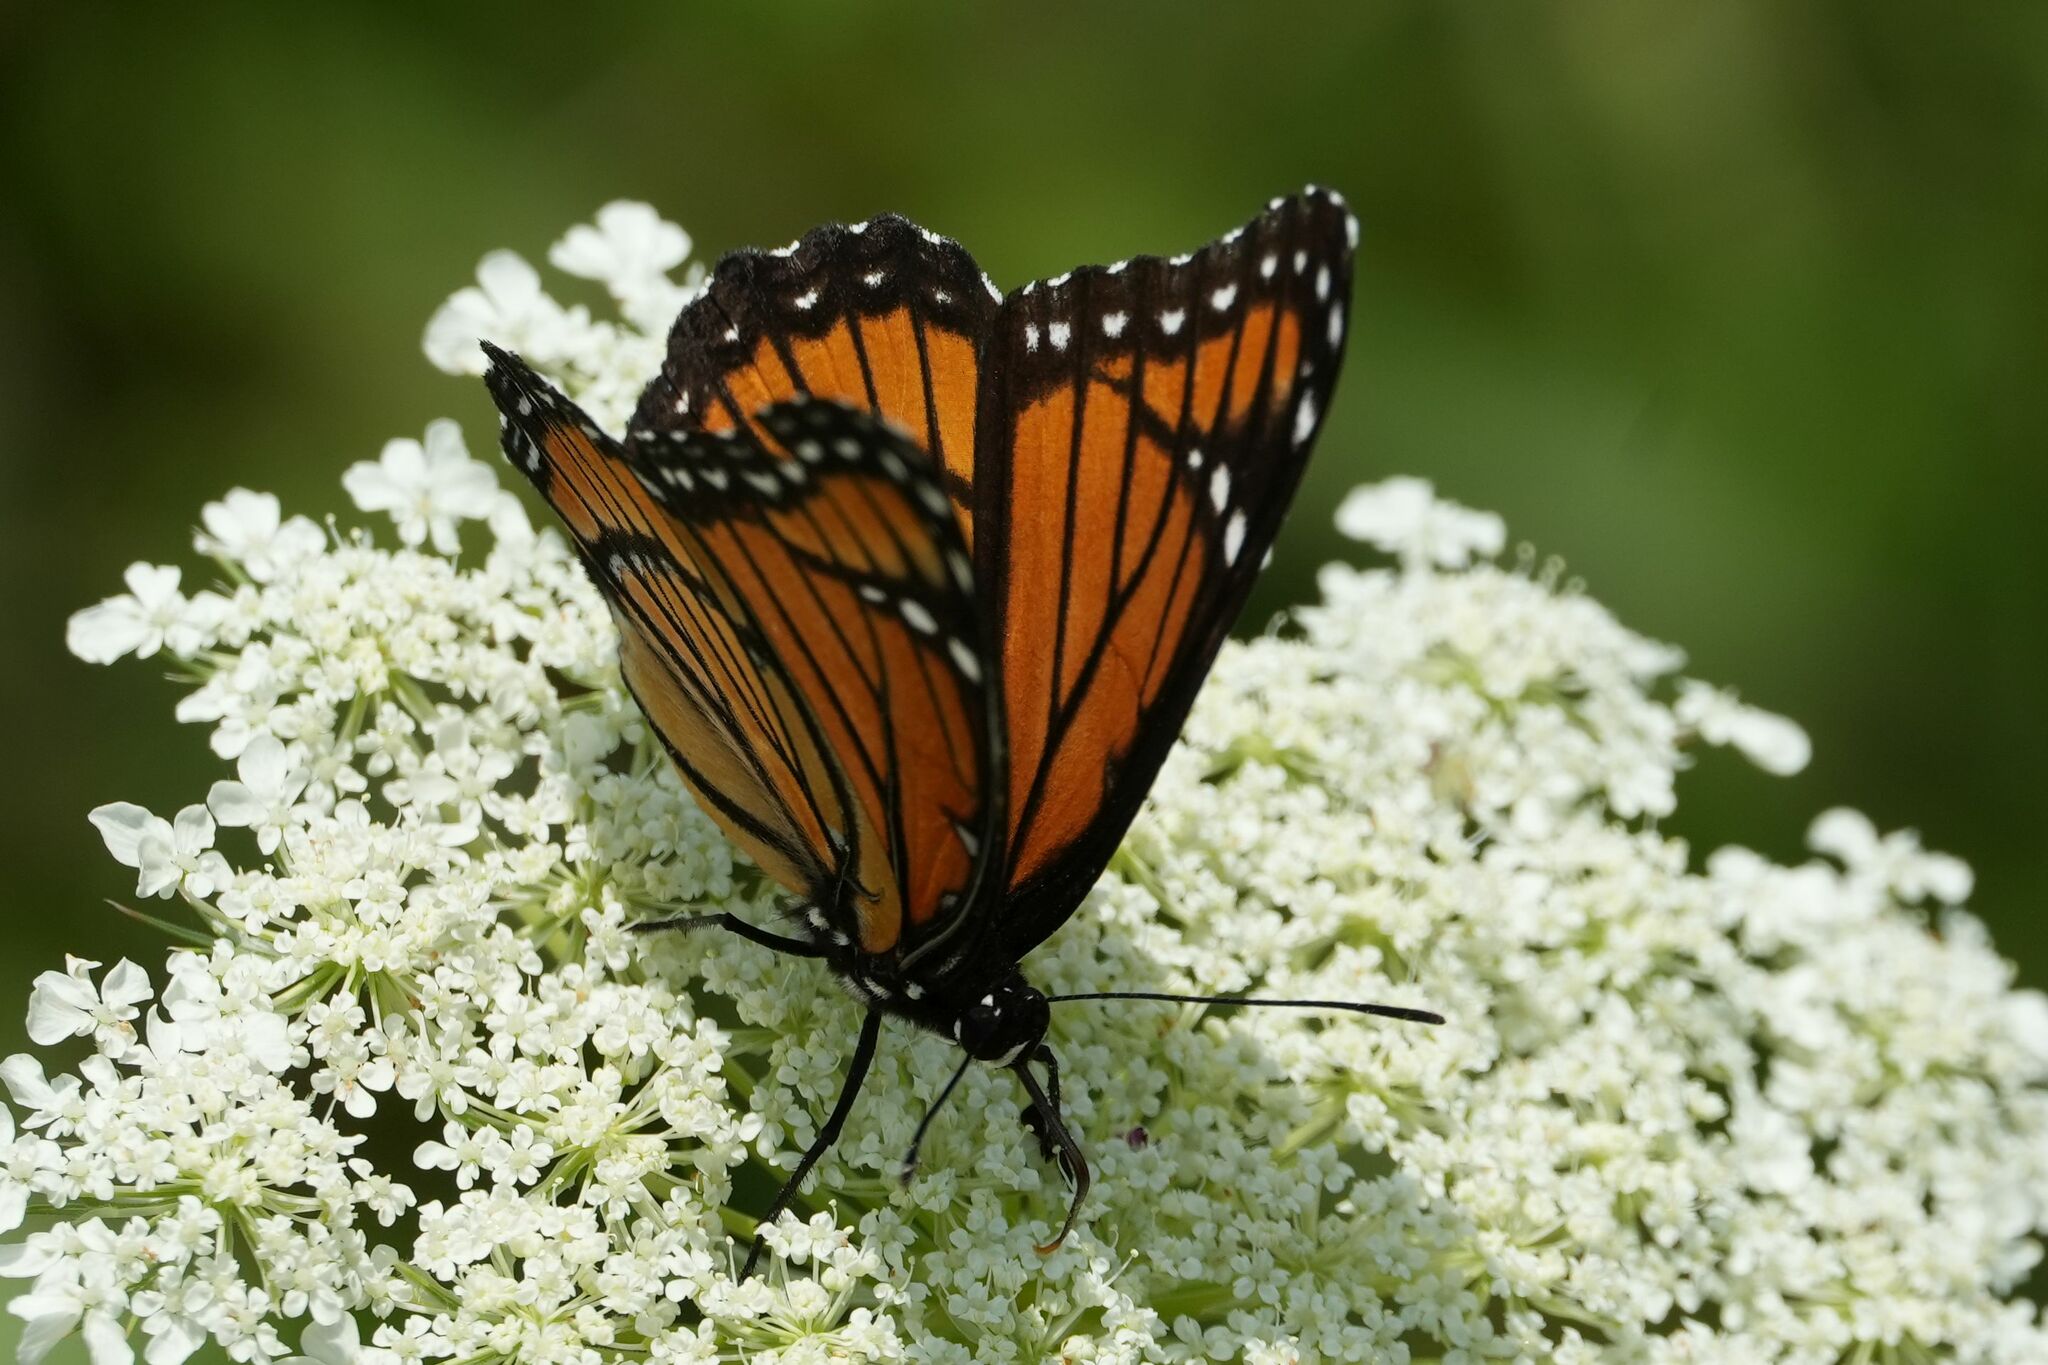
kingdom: Animalia
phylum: Arthropoda
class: Insecta
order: Lepidoptera
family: Nymphalidae
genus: Limenitis
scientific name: Limenitis archippus
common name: Viceroy
